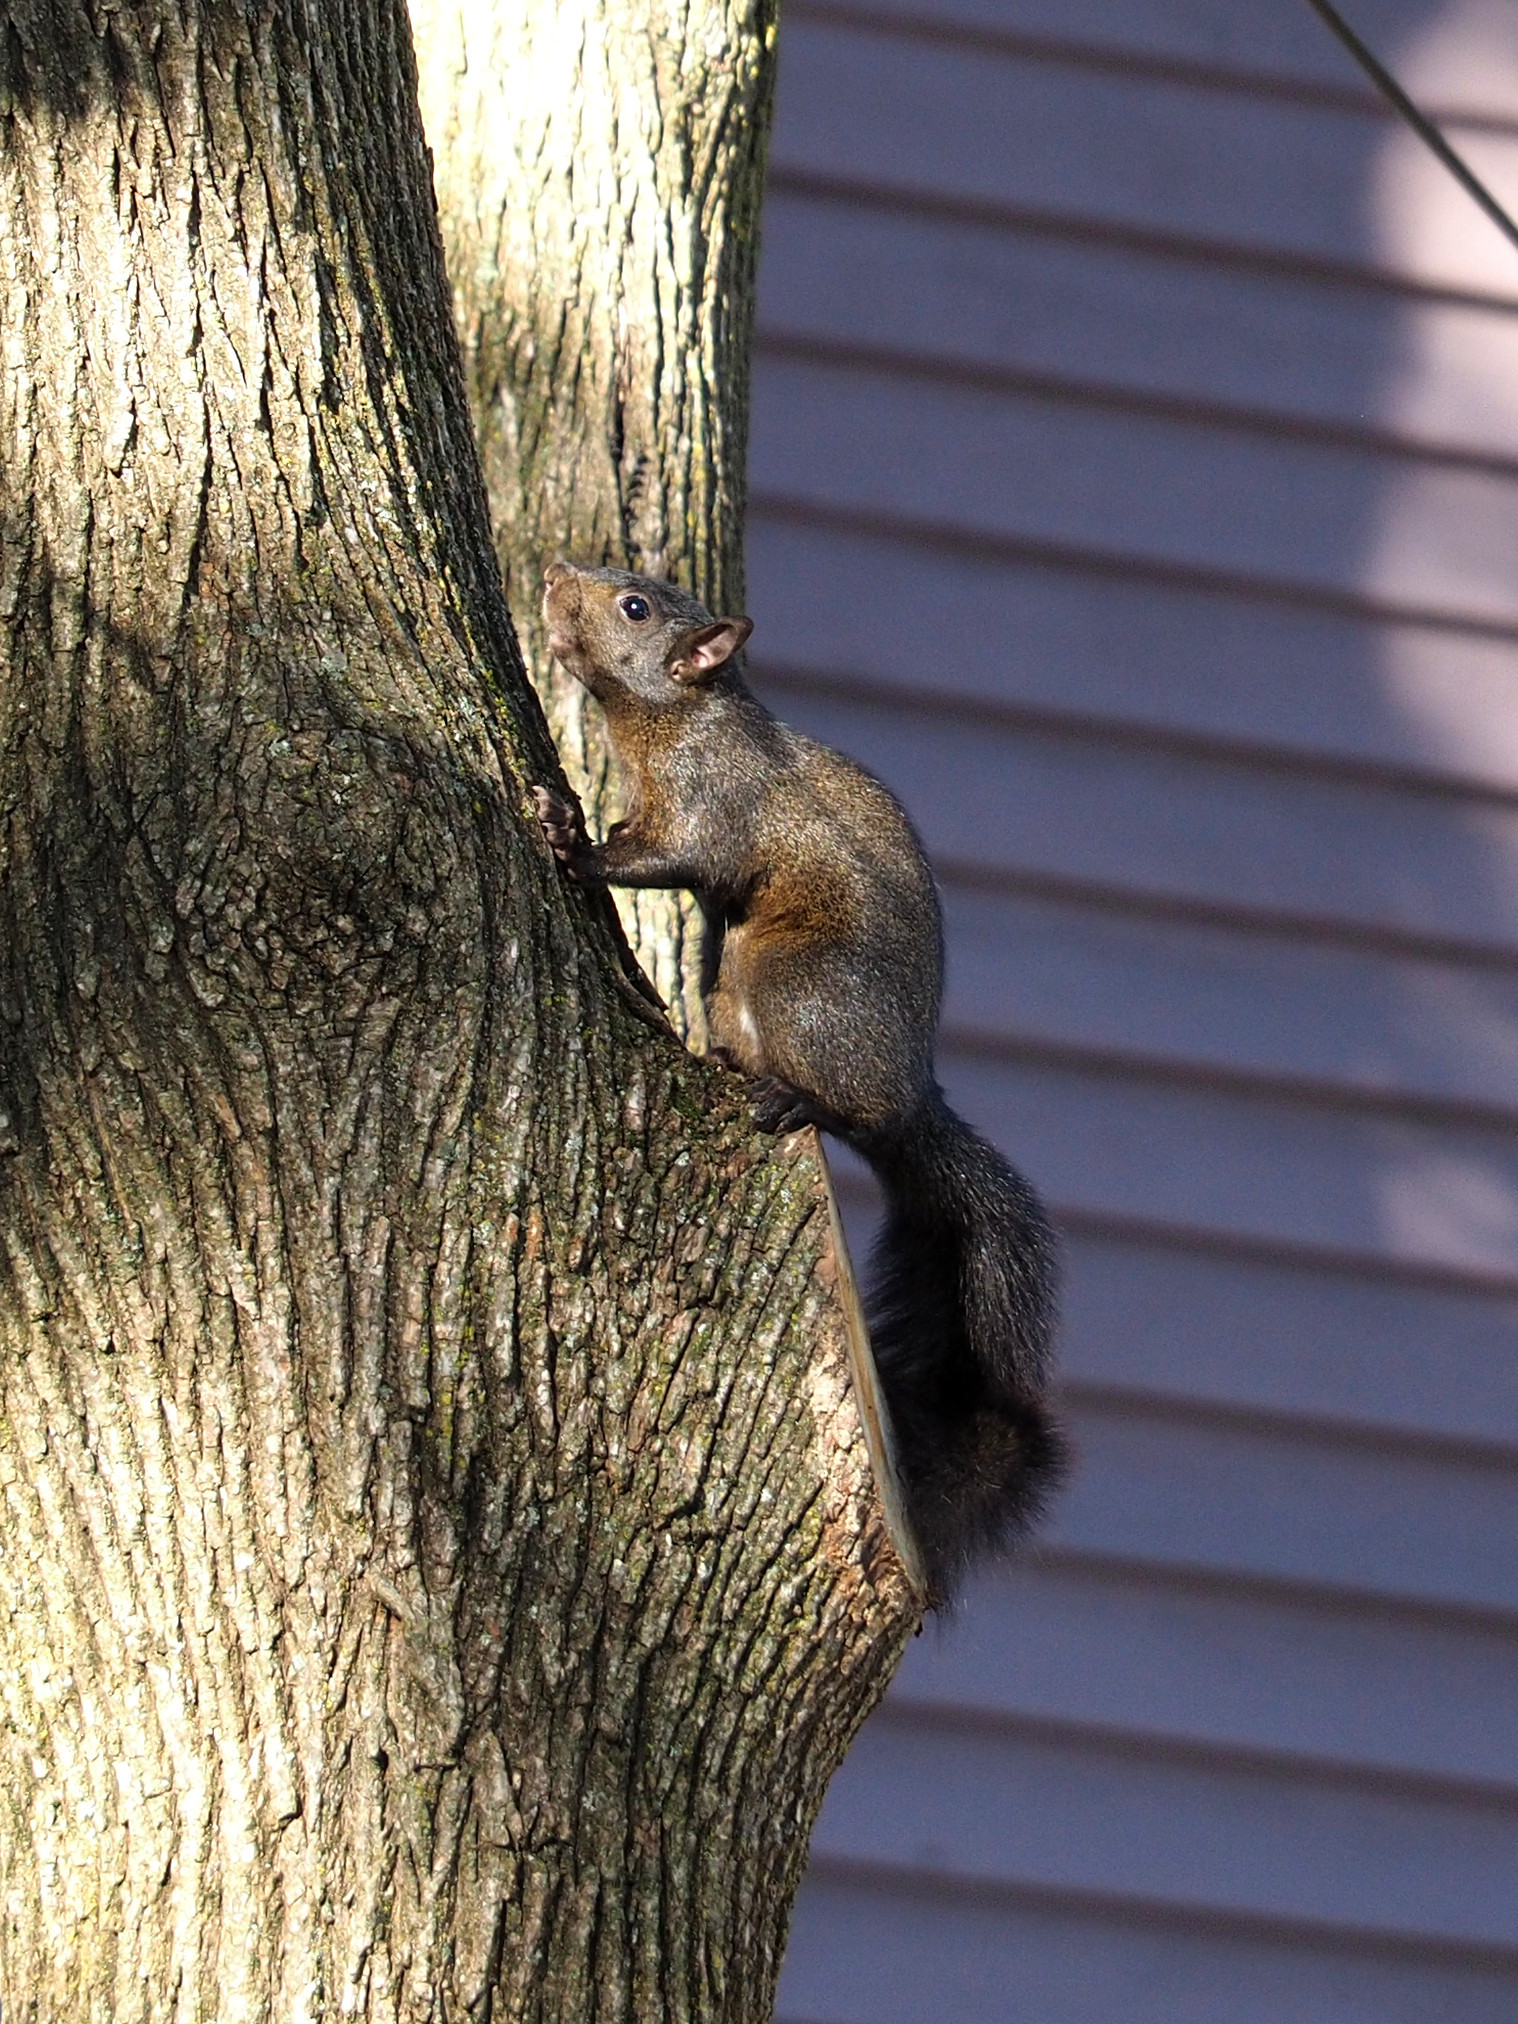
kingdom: Animalia
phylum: Chordata
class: Mammalia
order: Rodentia
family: Sciuridae
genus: Sciurus
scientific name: Sciurus carolinensis
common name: Eastern gray squirrel
